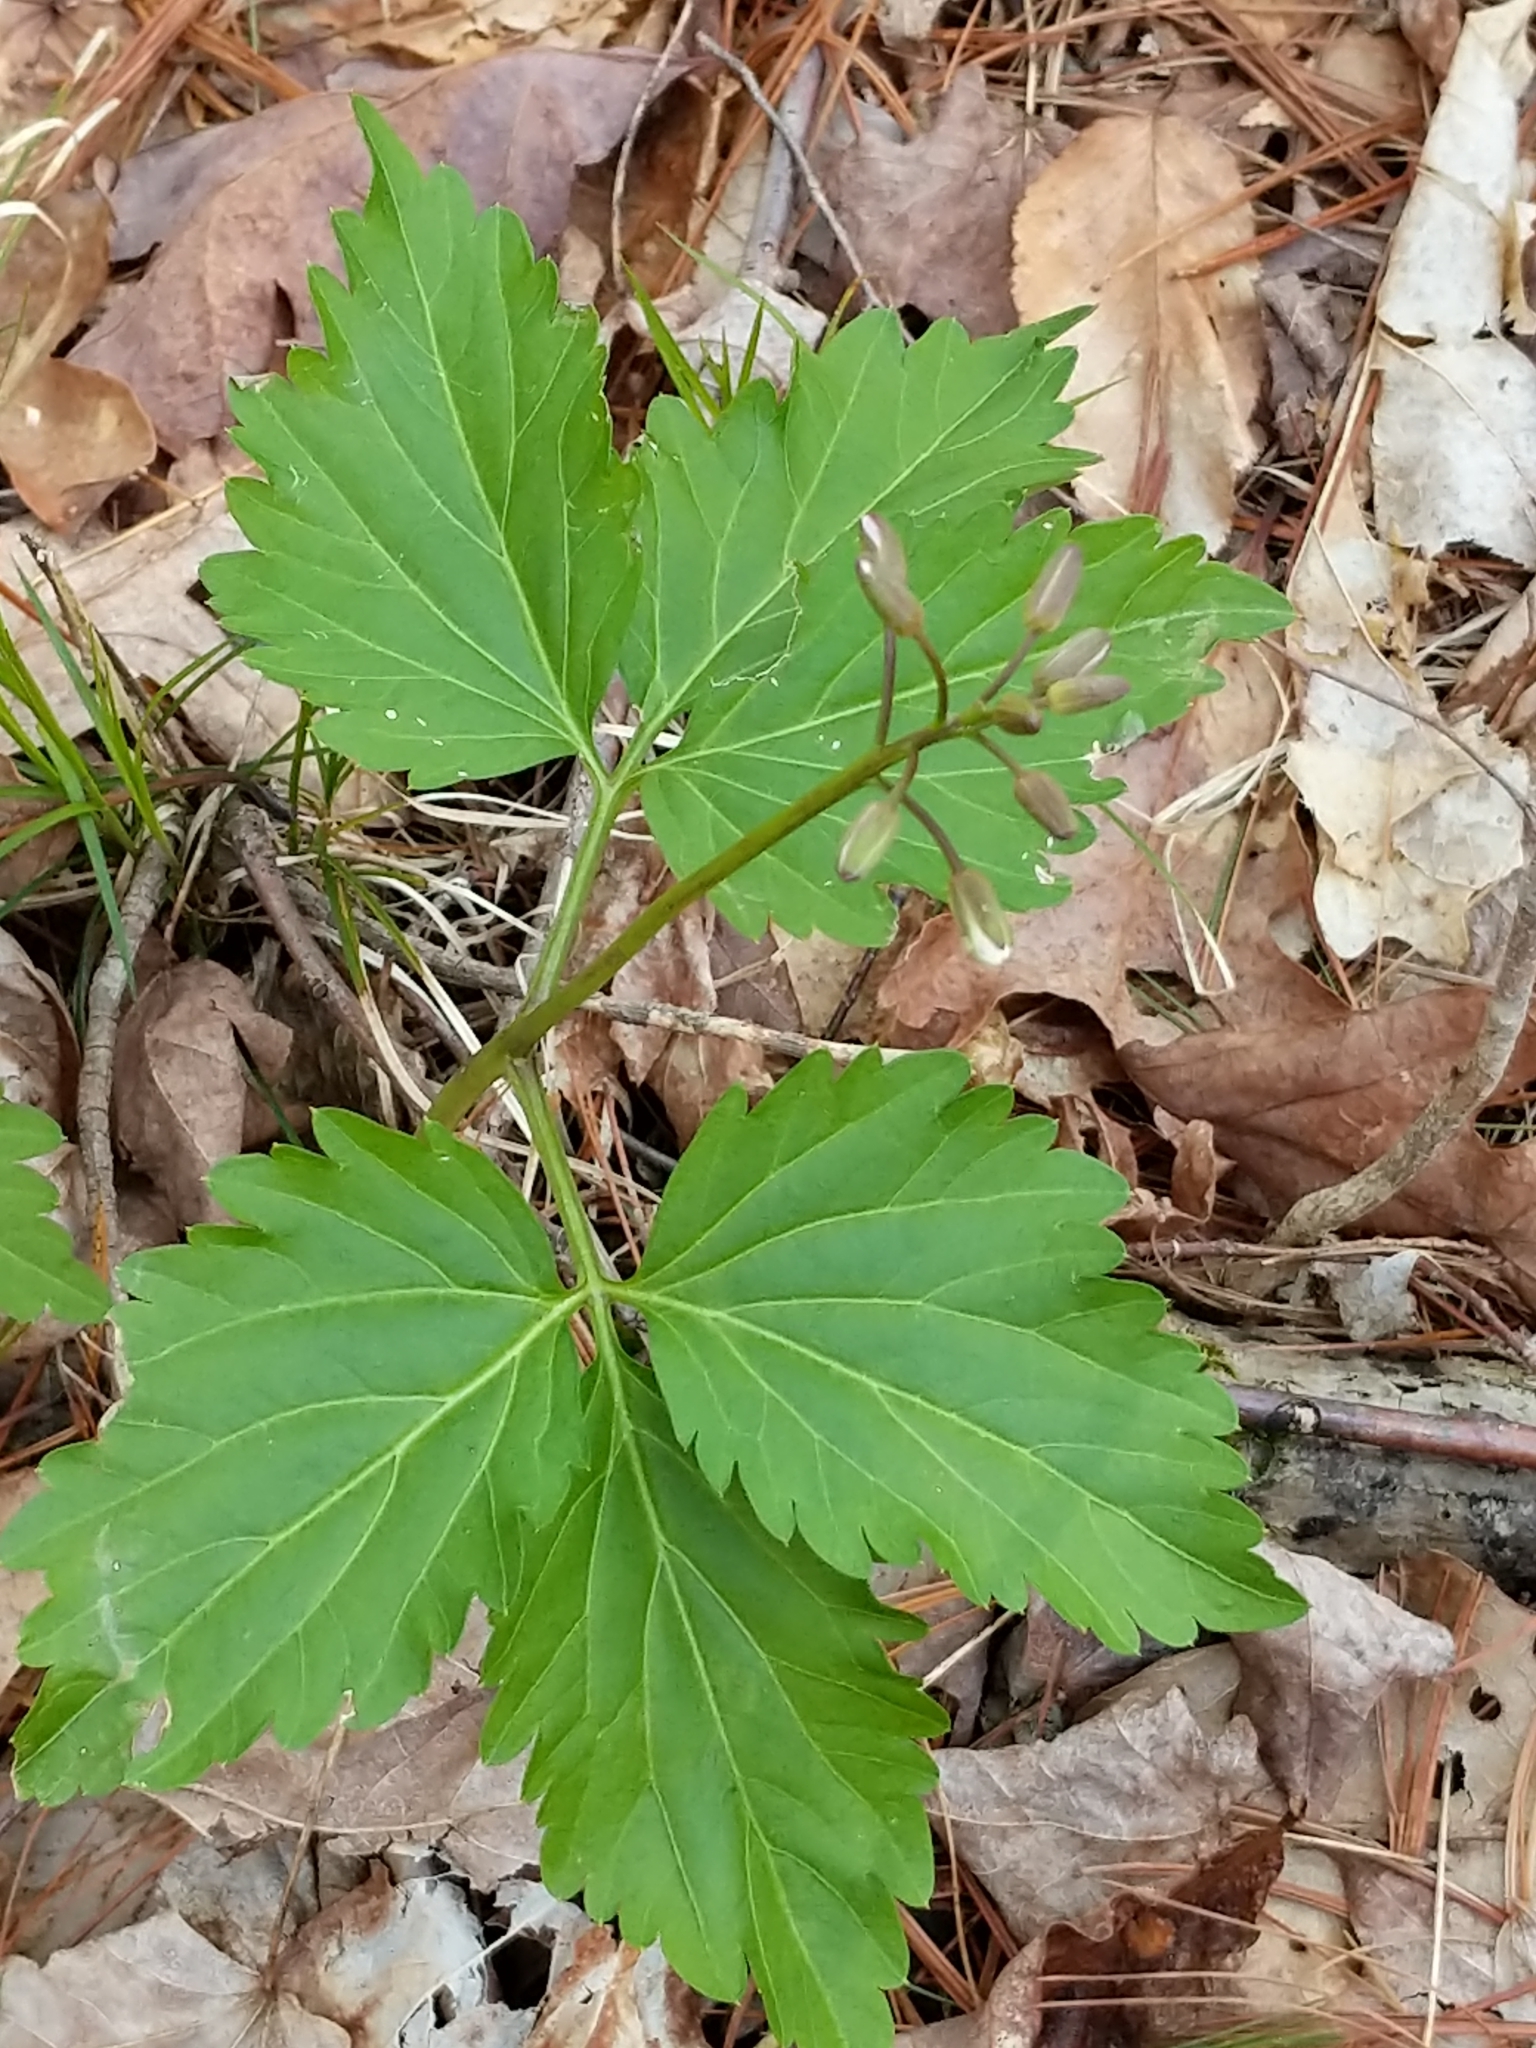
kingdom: Plantae
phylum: Tracheophyta
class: Magnoliopsida
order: Brassicales
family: Brassicaceae
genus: Cardamine
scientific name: Cardamine diphylla
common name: Broad-leaved toothwort
